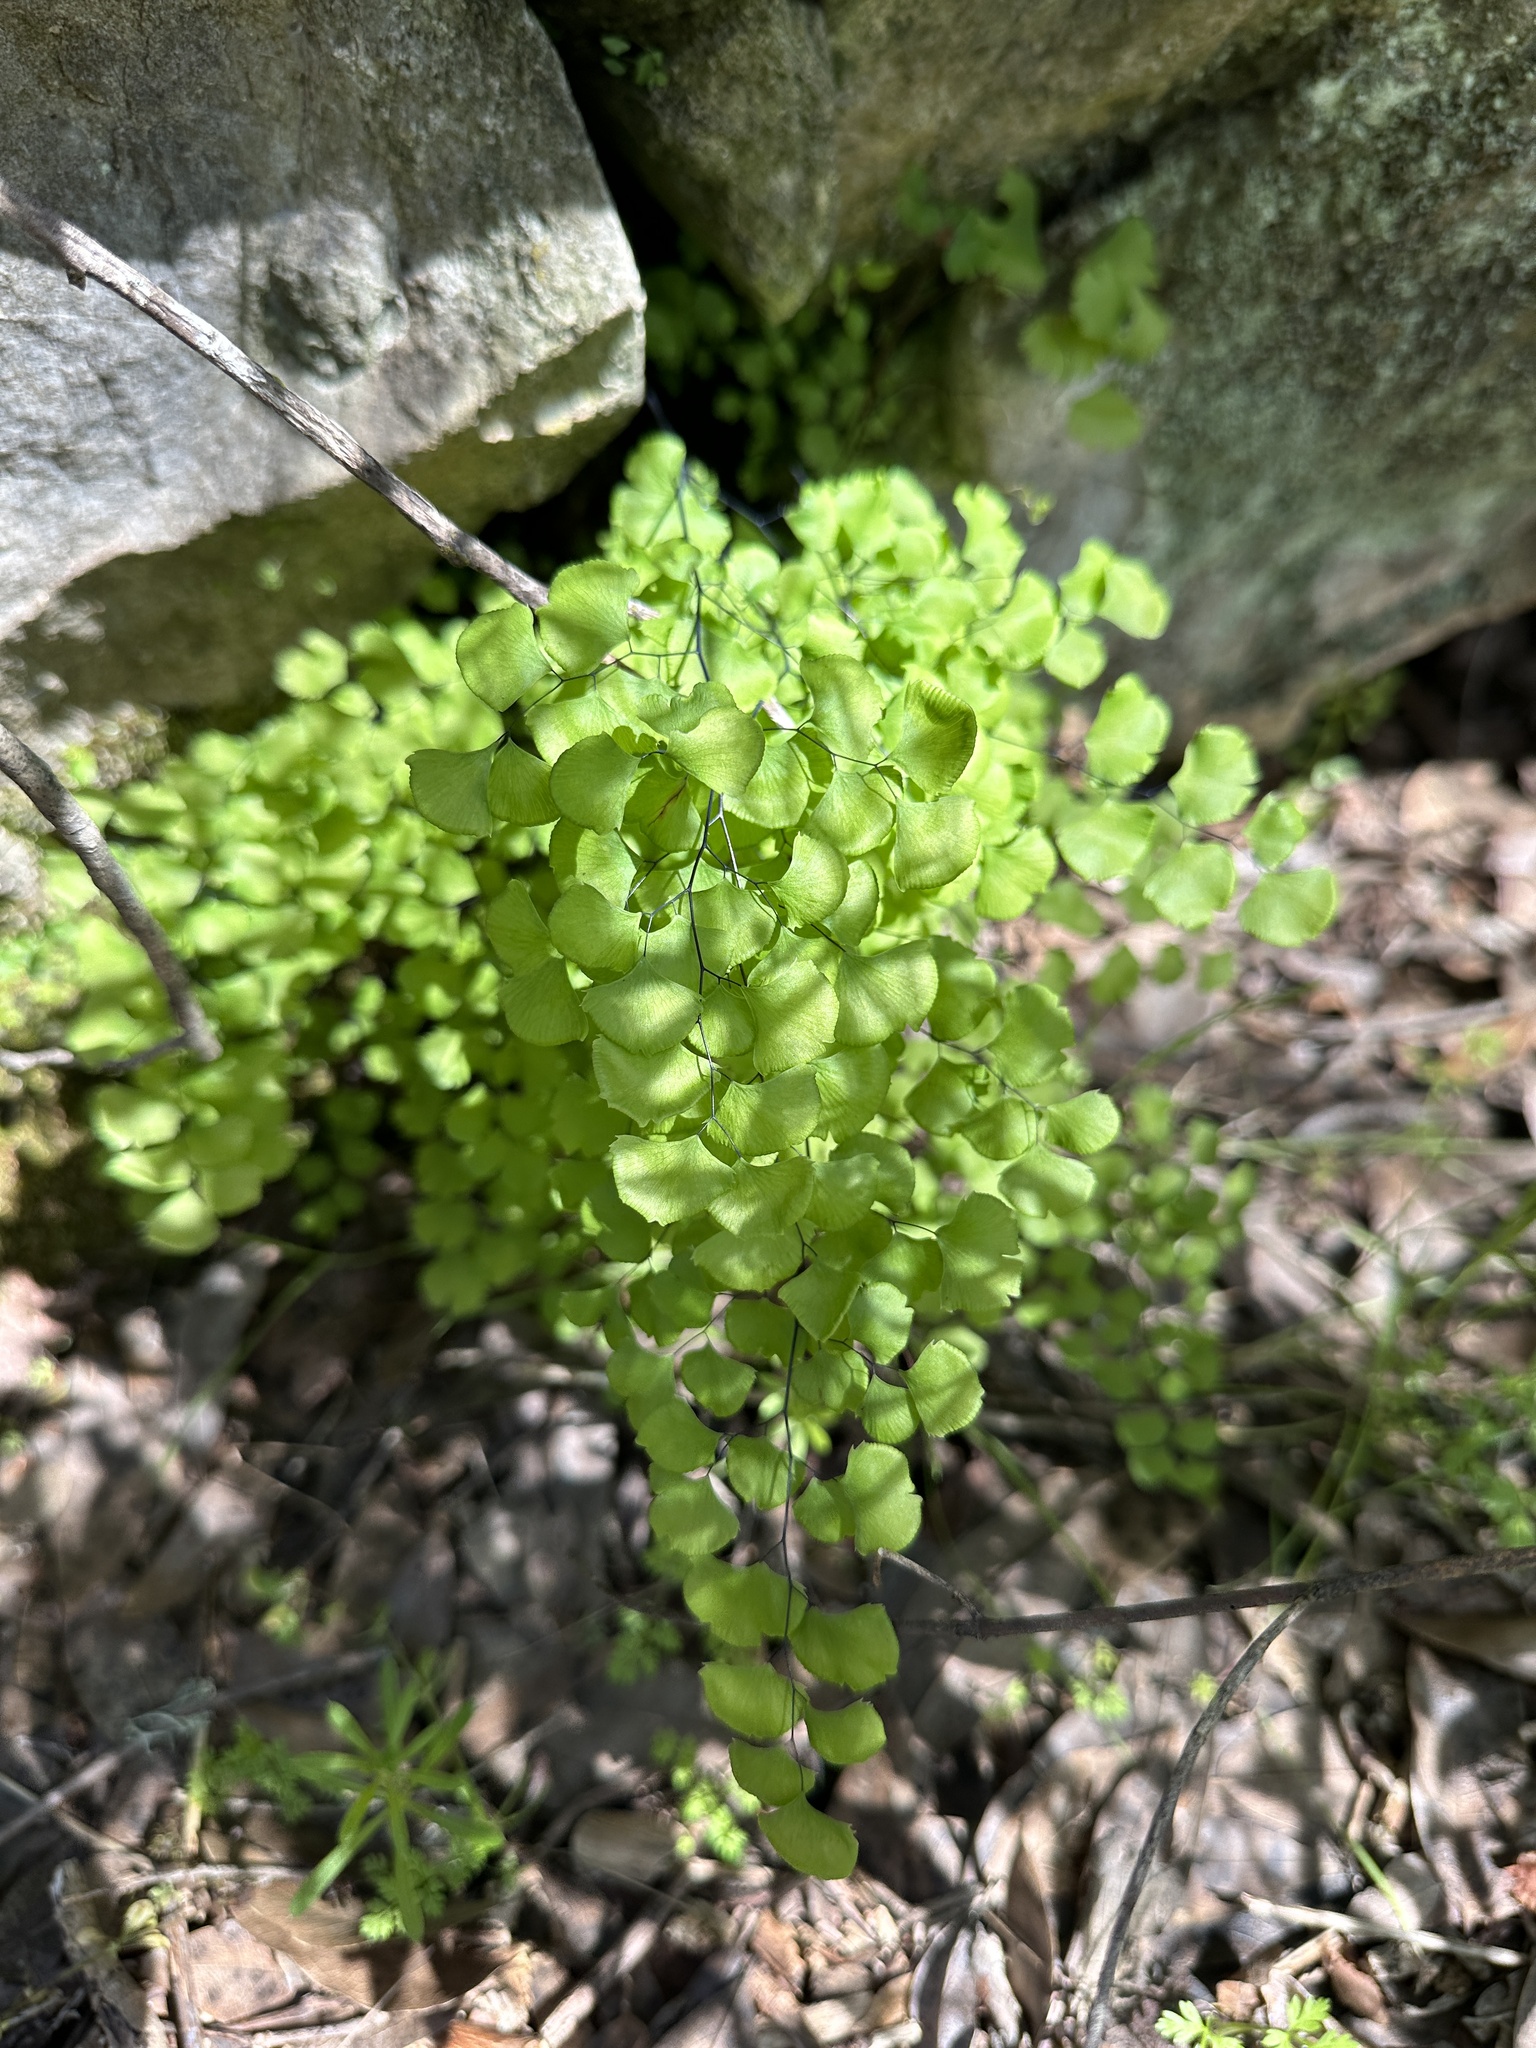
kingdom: Plantae
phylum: Tracheophyta
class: Polypodiopsida
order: Polypodiales
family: Pteridaceae
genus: Adiantum
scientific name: Adiantum jordanii
